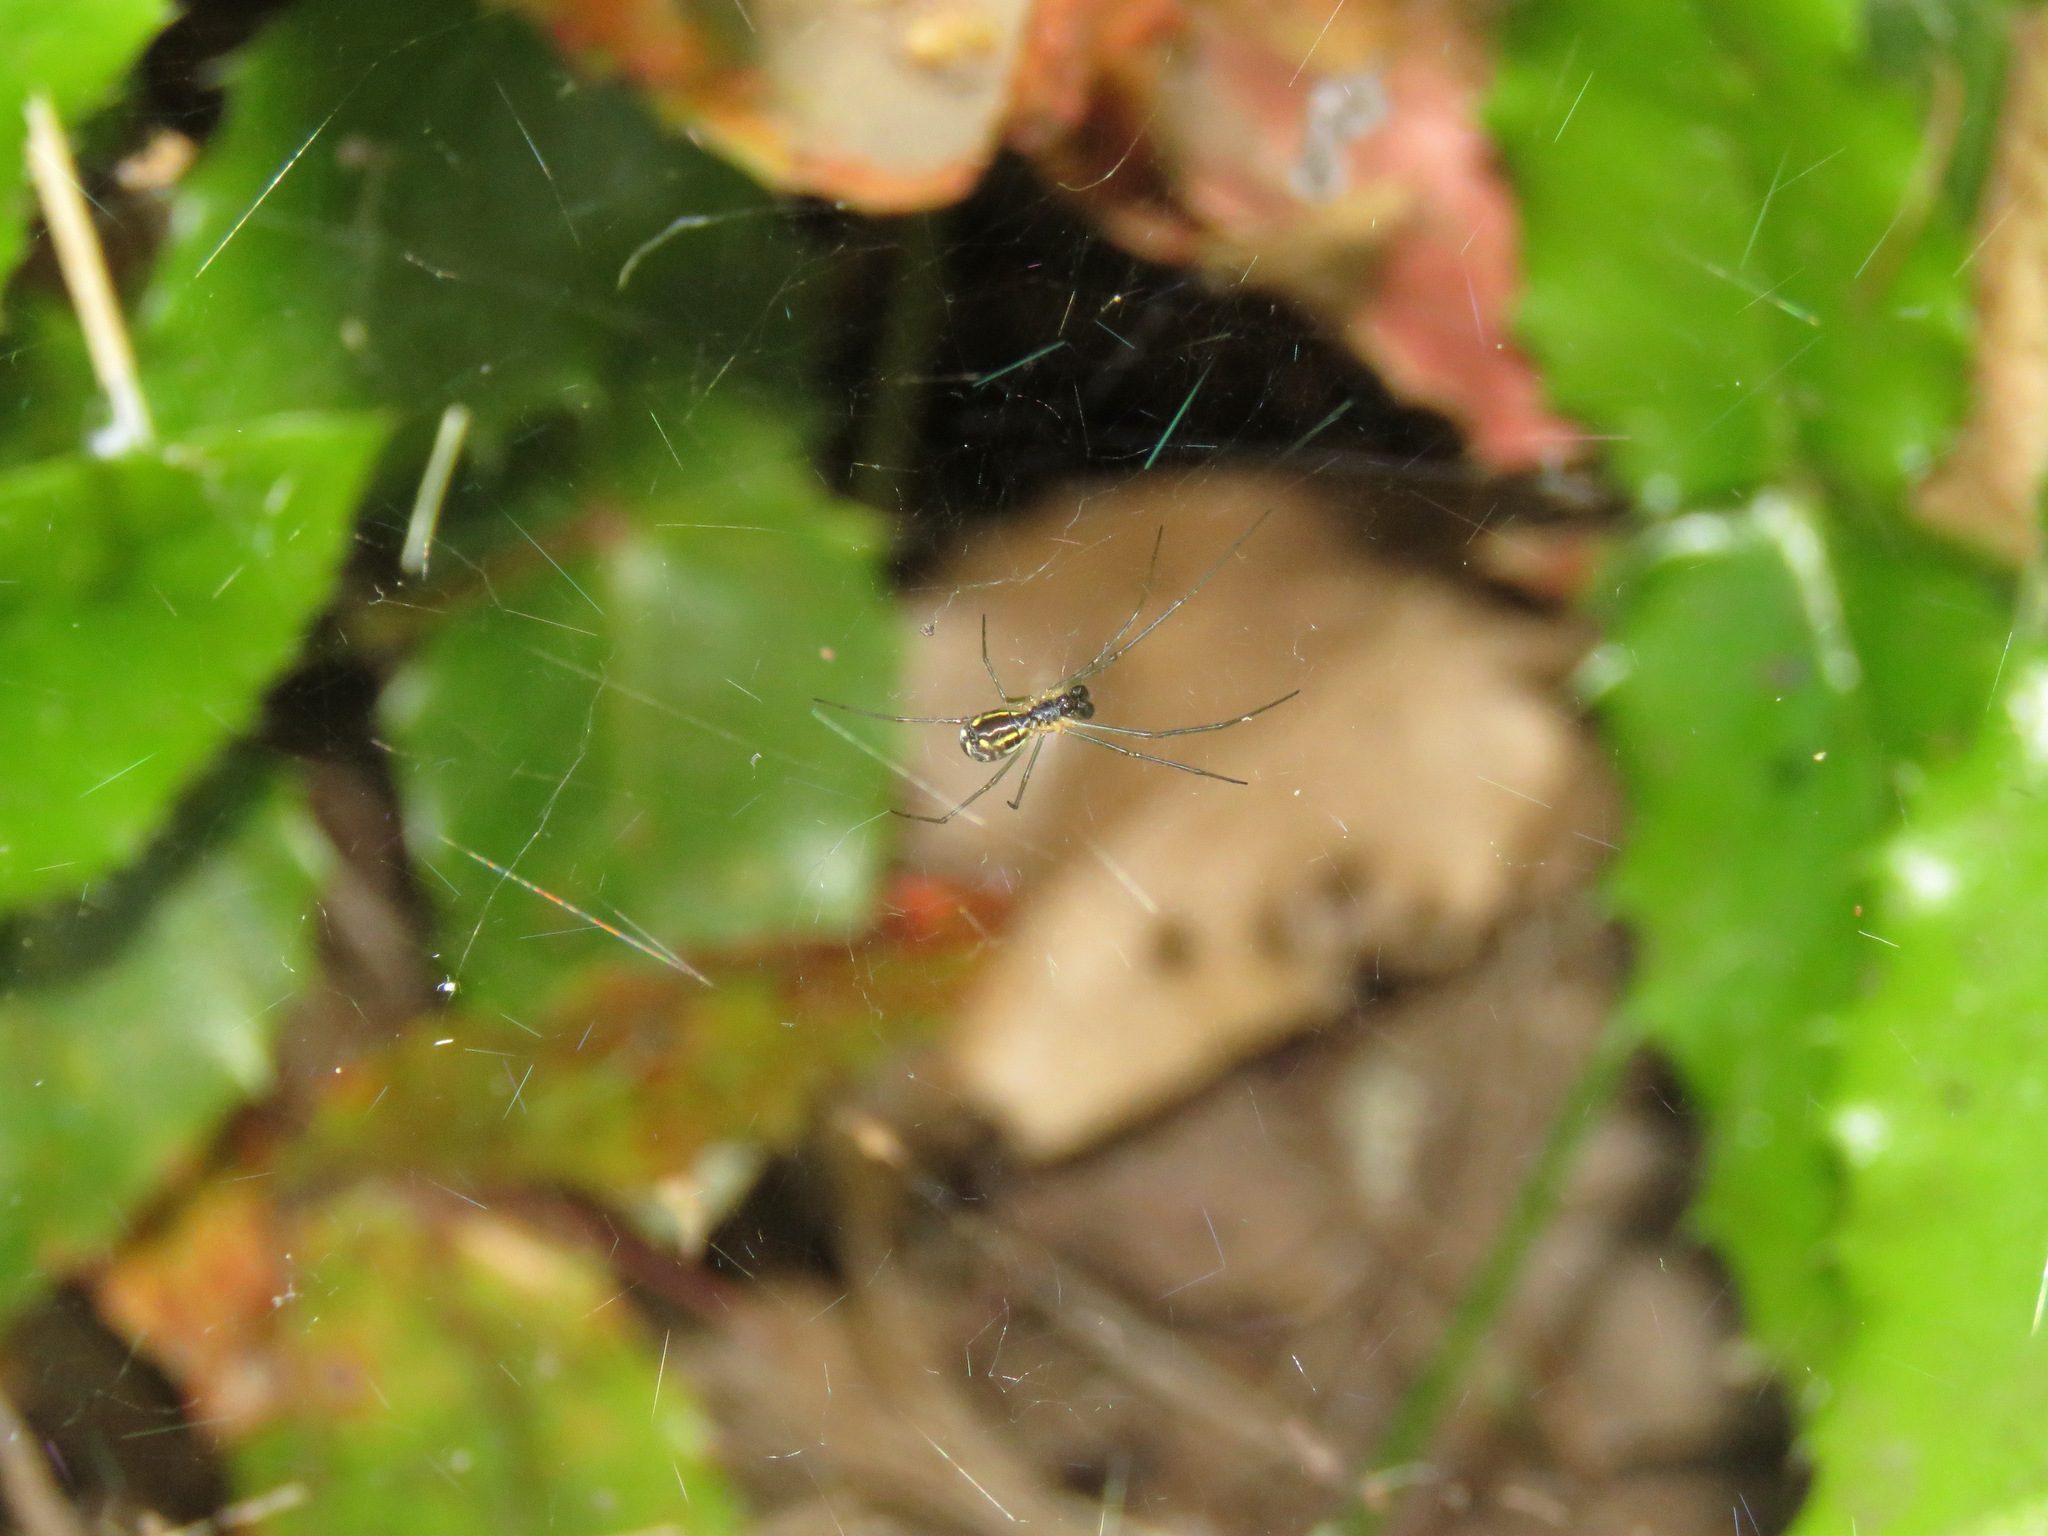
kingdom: Animalia
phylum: Arthropoda
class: Arachnida
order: Araneae
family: Linyphiidae
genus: Neriene
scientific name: Neriene radiata
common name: Filmy dome spider
